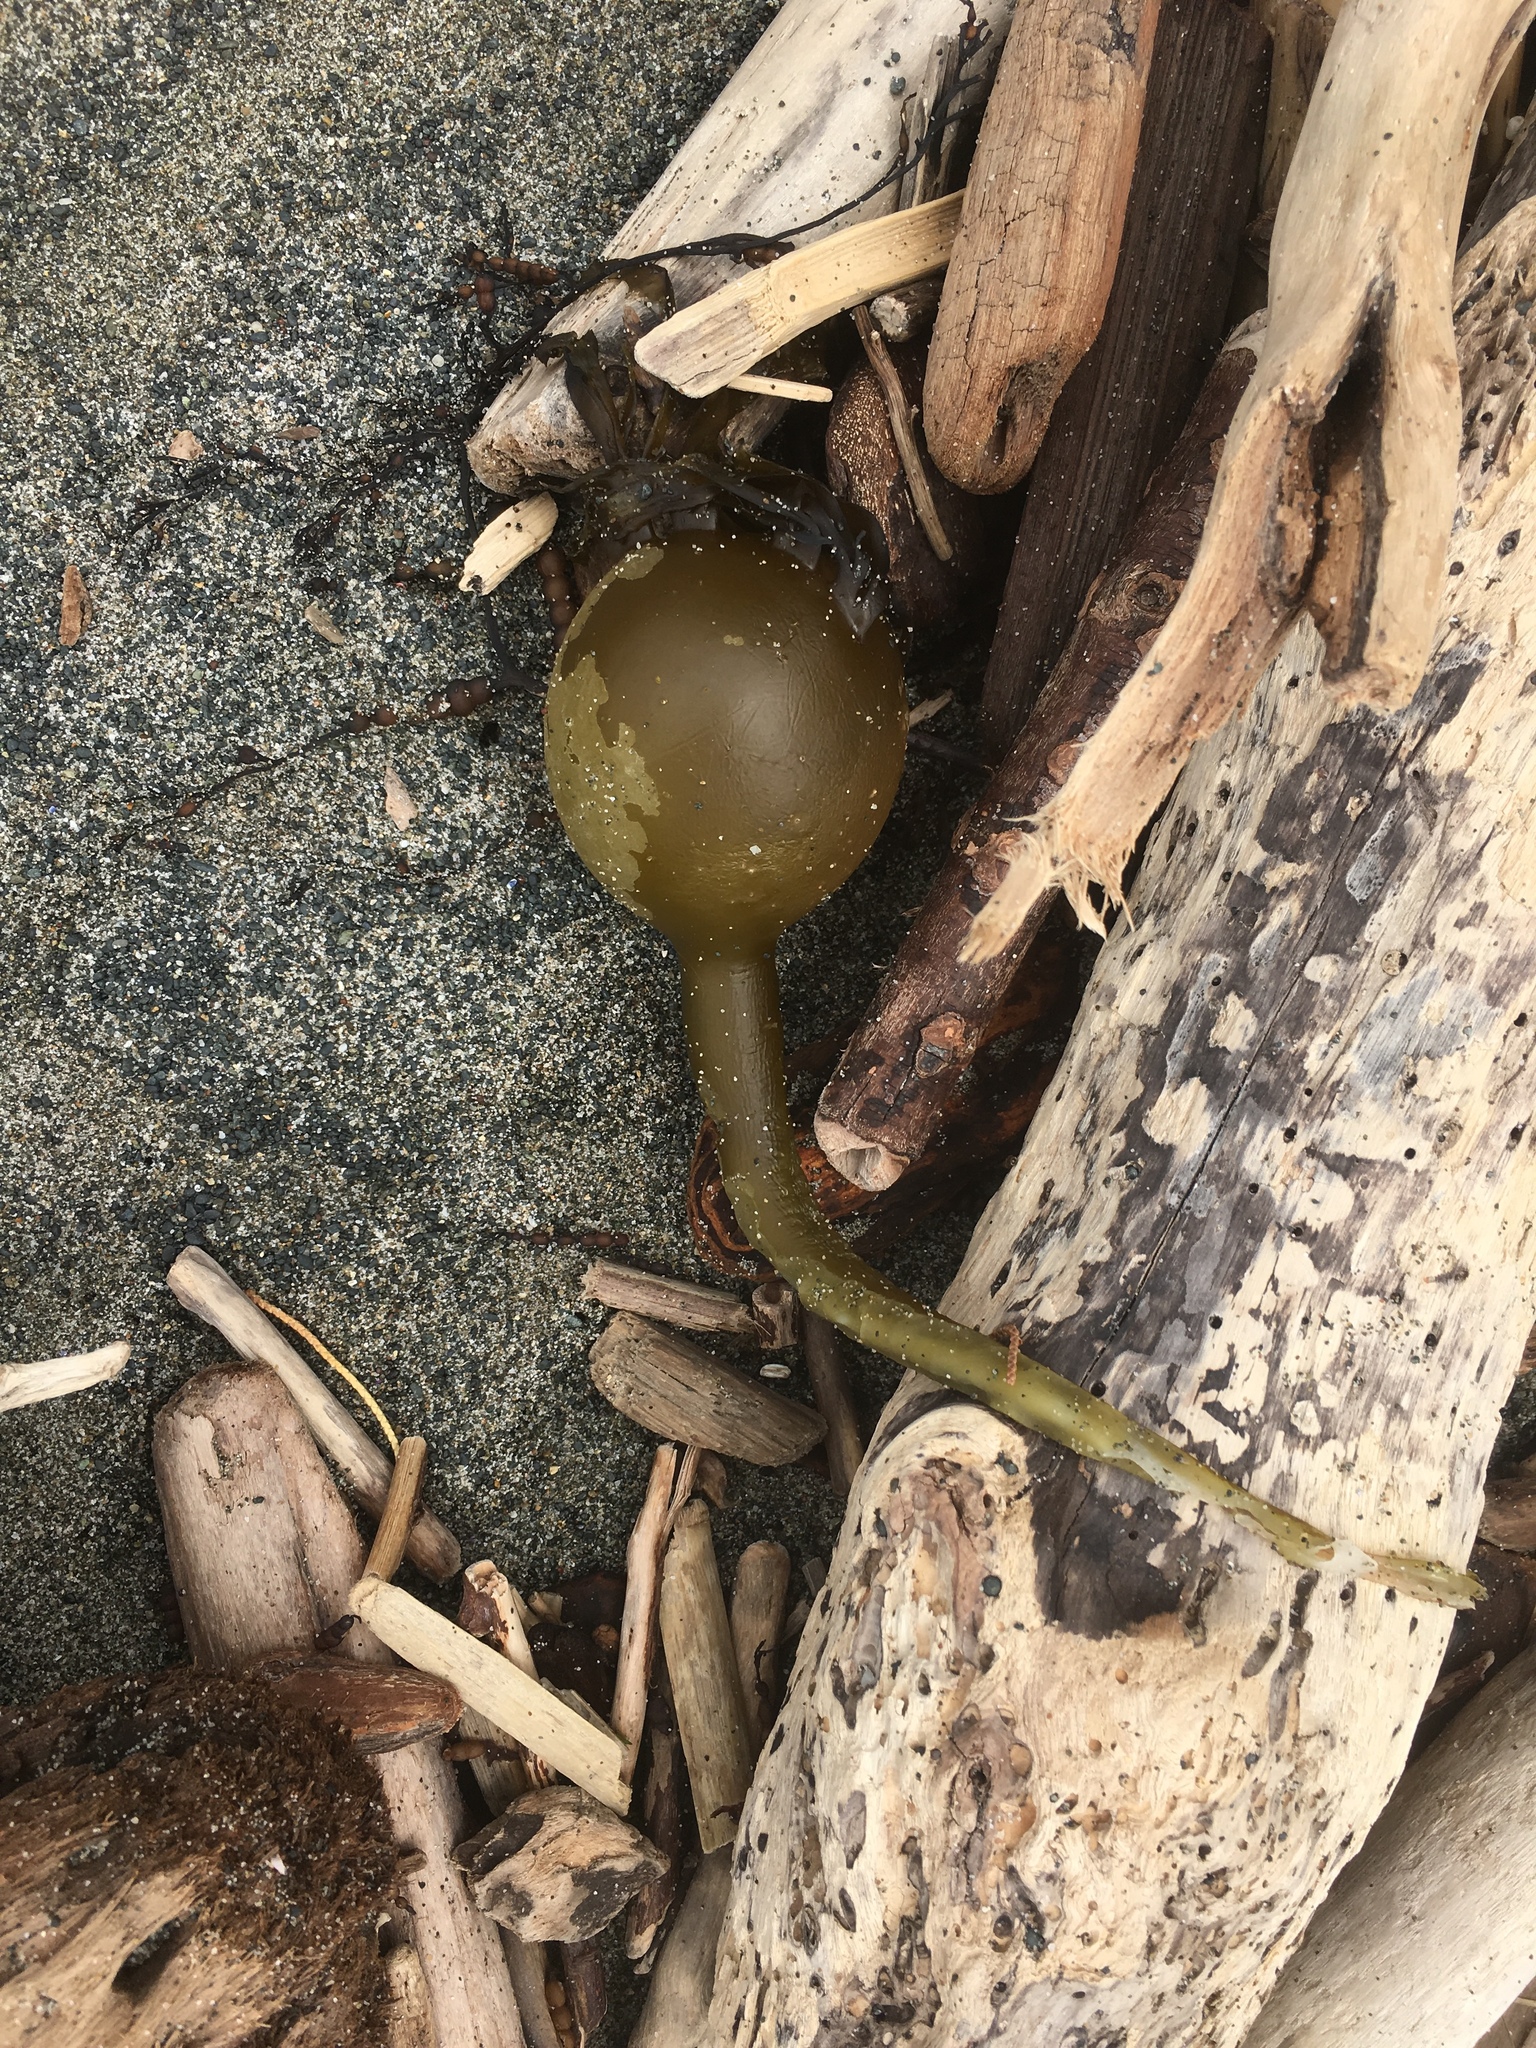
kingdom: Chromista
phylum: Ochrophyta
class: Phaeophyceae
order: Laminariales
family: Laminariaceae
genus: Nereocystis
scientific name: Nereocystis luetkeana
